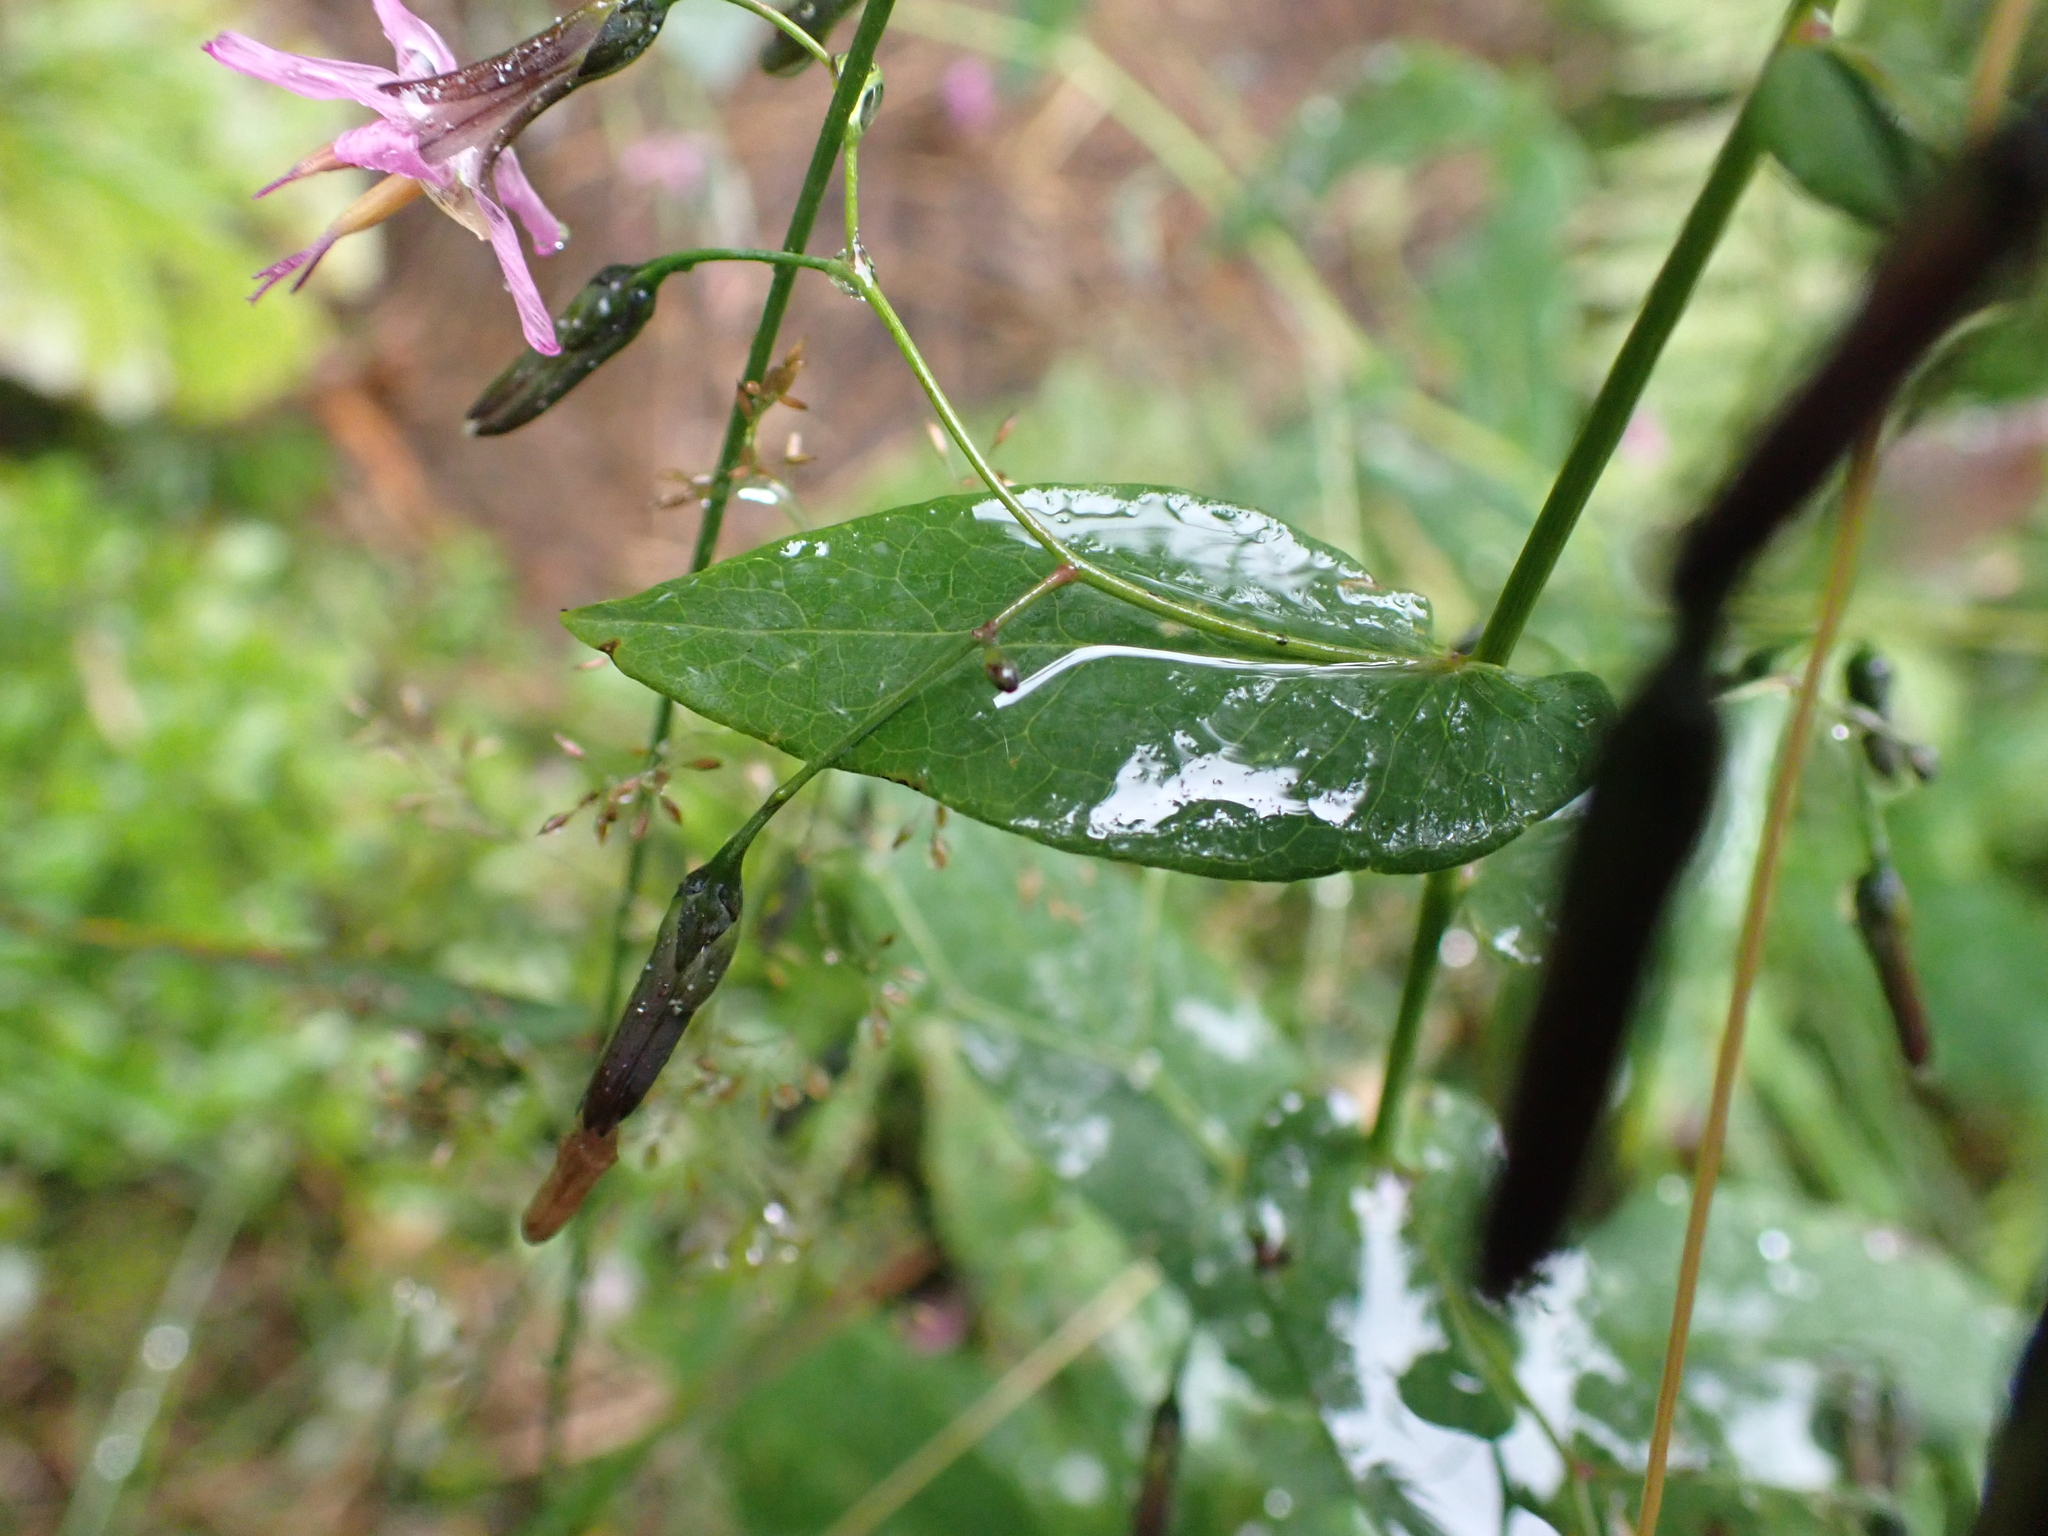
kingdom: Plantae
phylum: Tracheophyta
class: Magnoliopsida
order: Asterales
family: Asteraceae
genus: Prenanthes
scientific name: Prenanthes purpurea
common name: Purple lettuce
